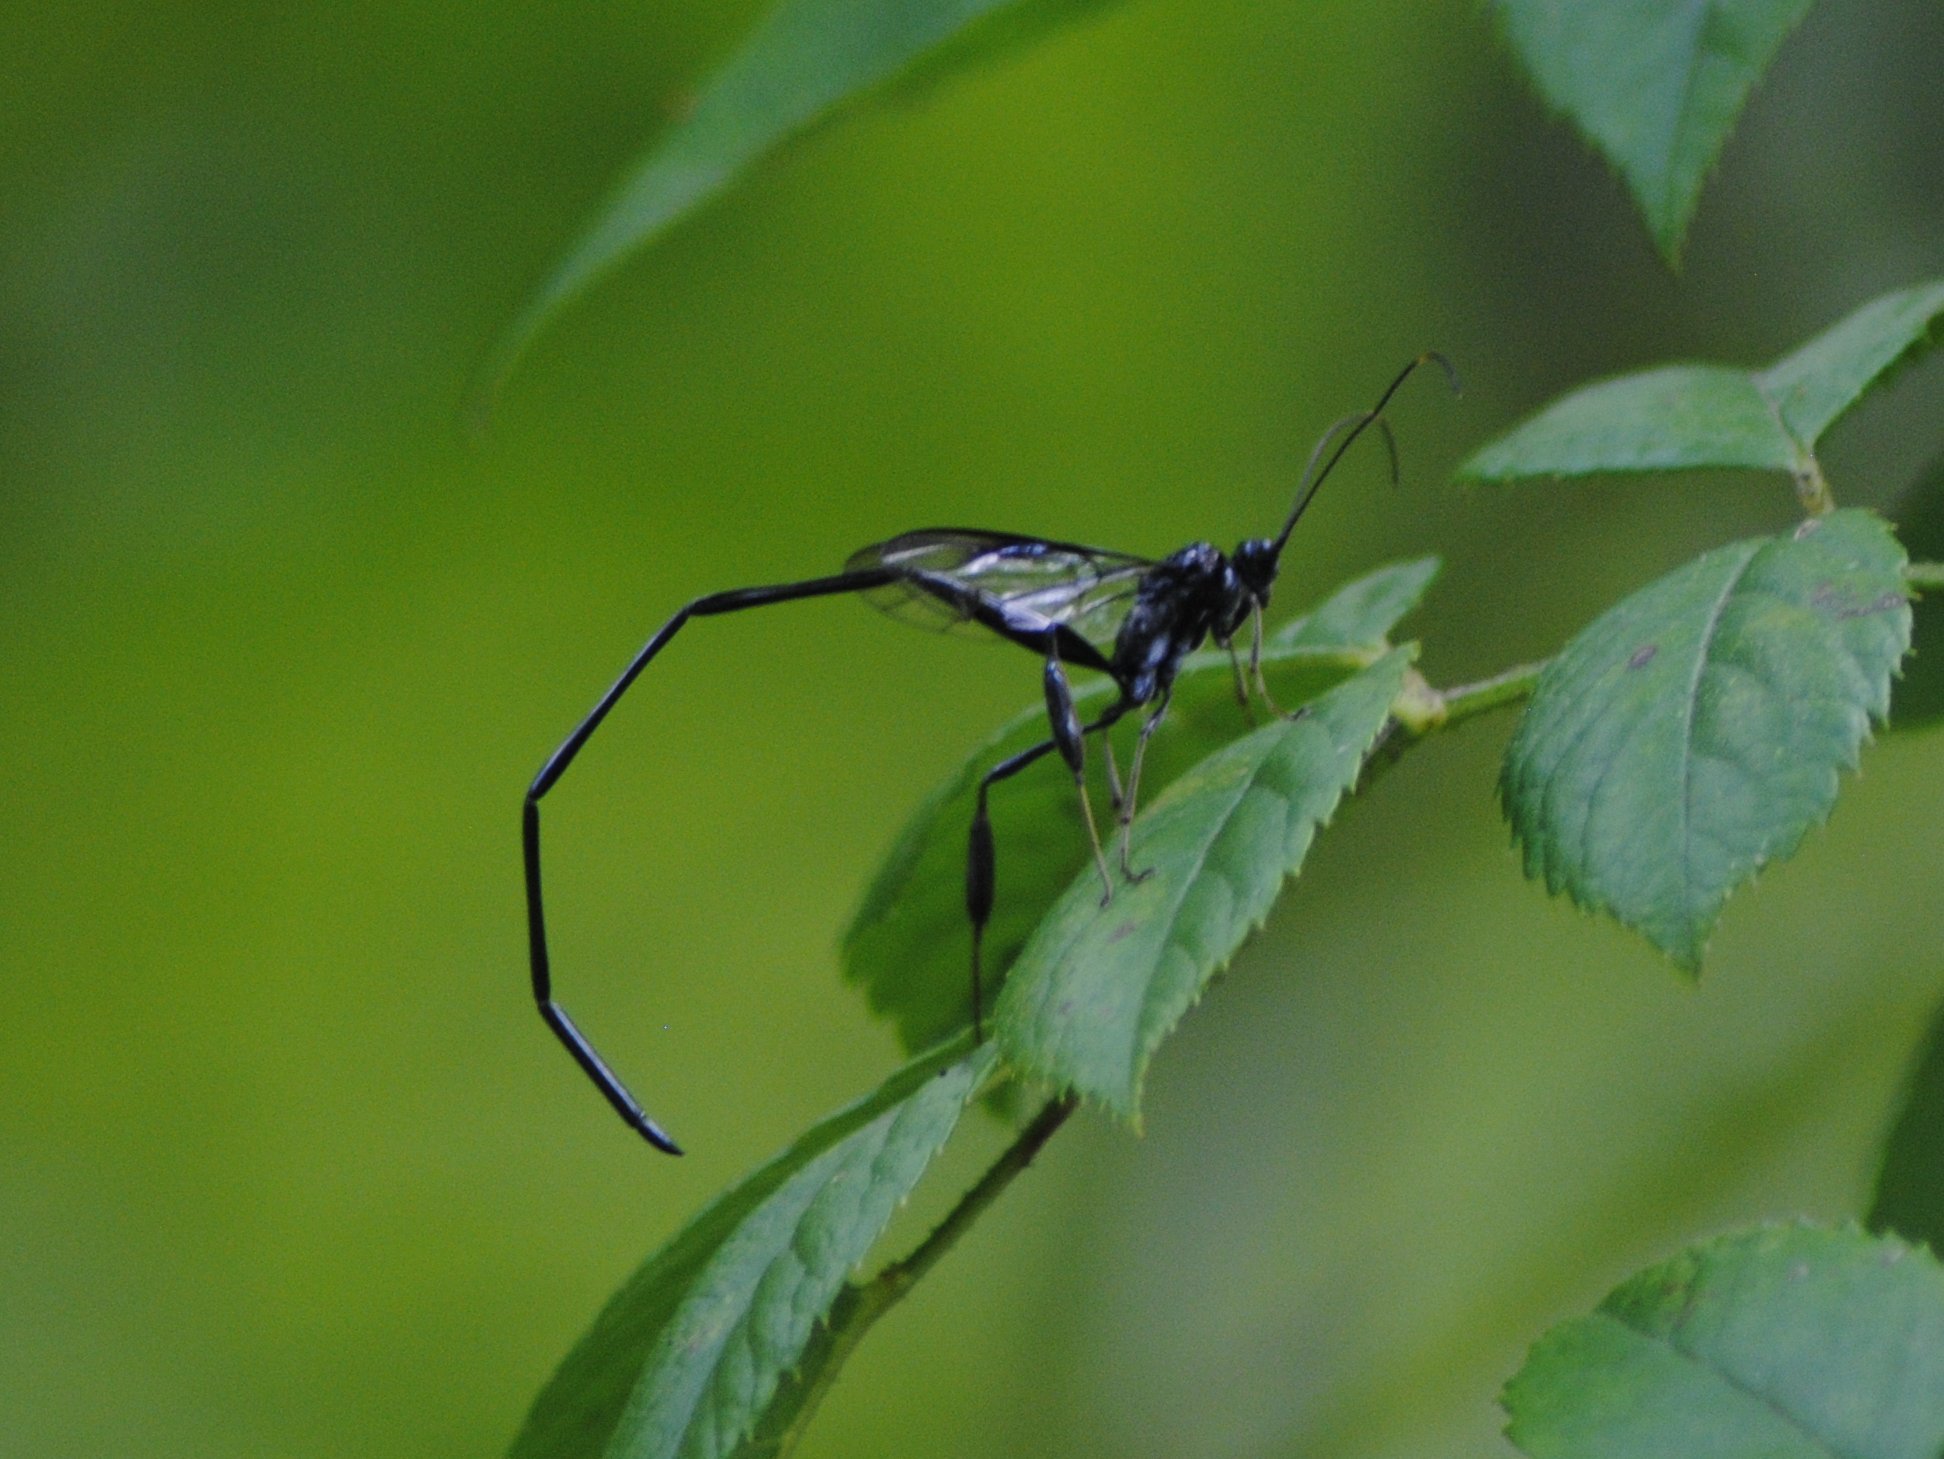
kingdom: Animalia
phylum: Arthropoda
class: Insecta
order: Hymenoptera
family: Pelecinidae
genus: Pelecinus
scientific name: Pelecinus polyturator
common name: American pelecinid wasp
